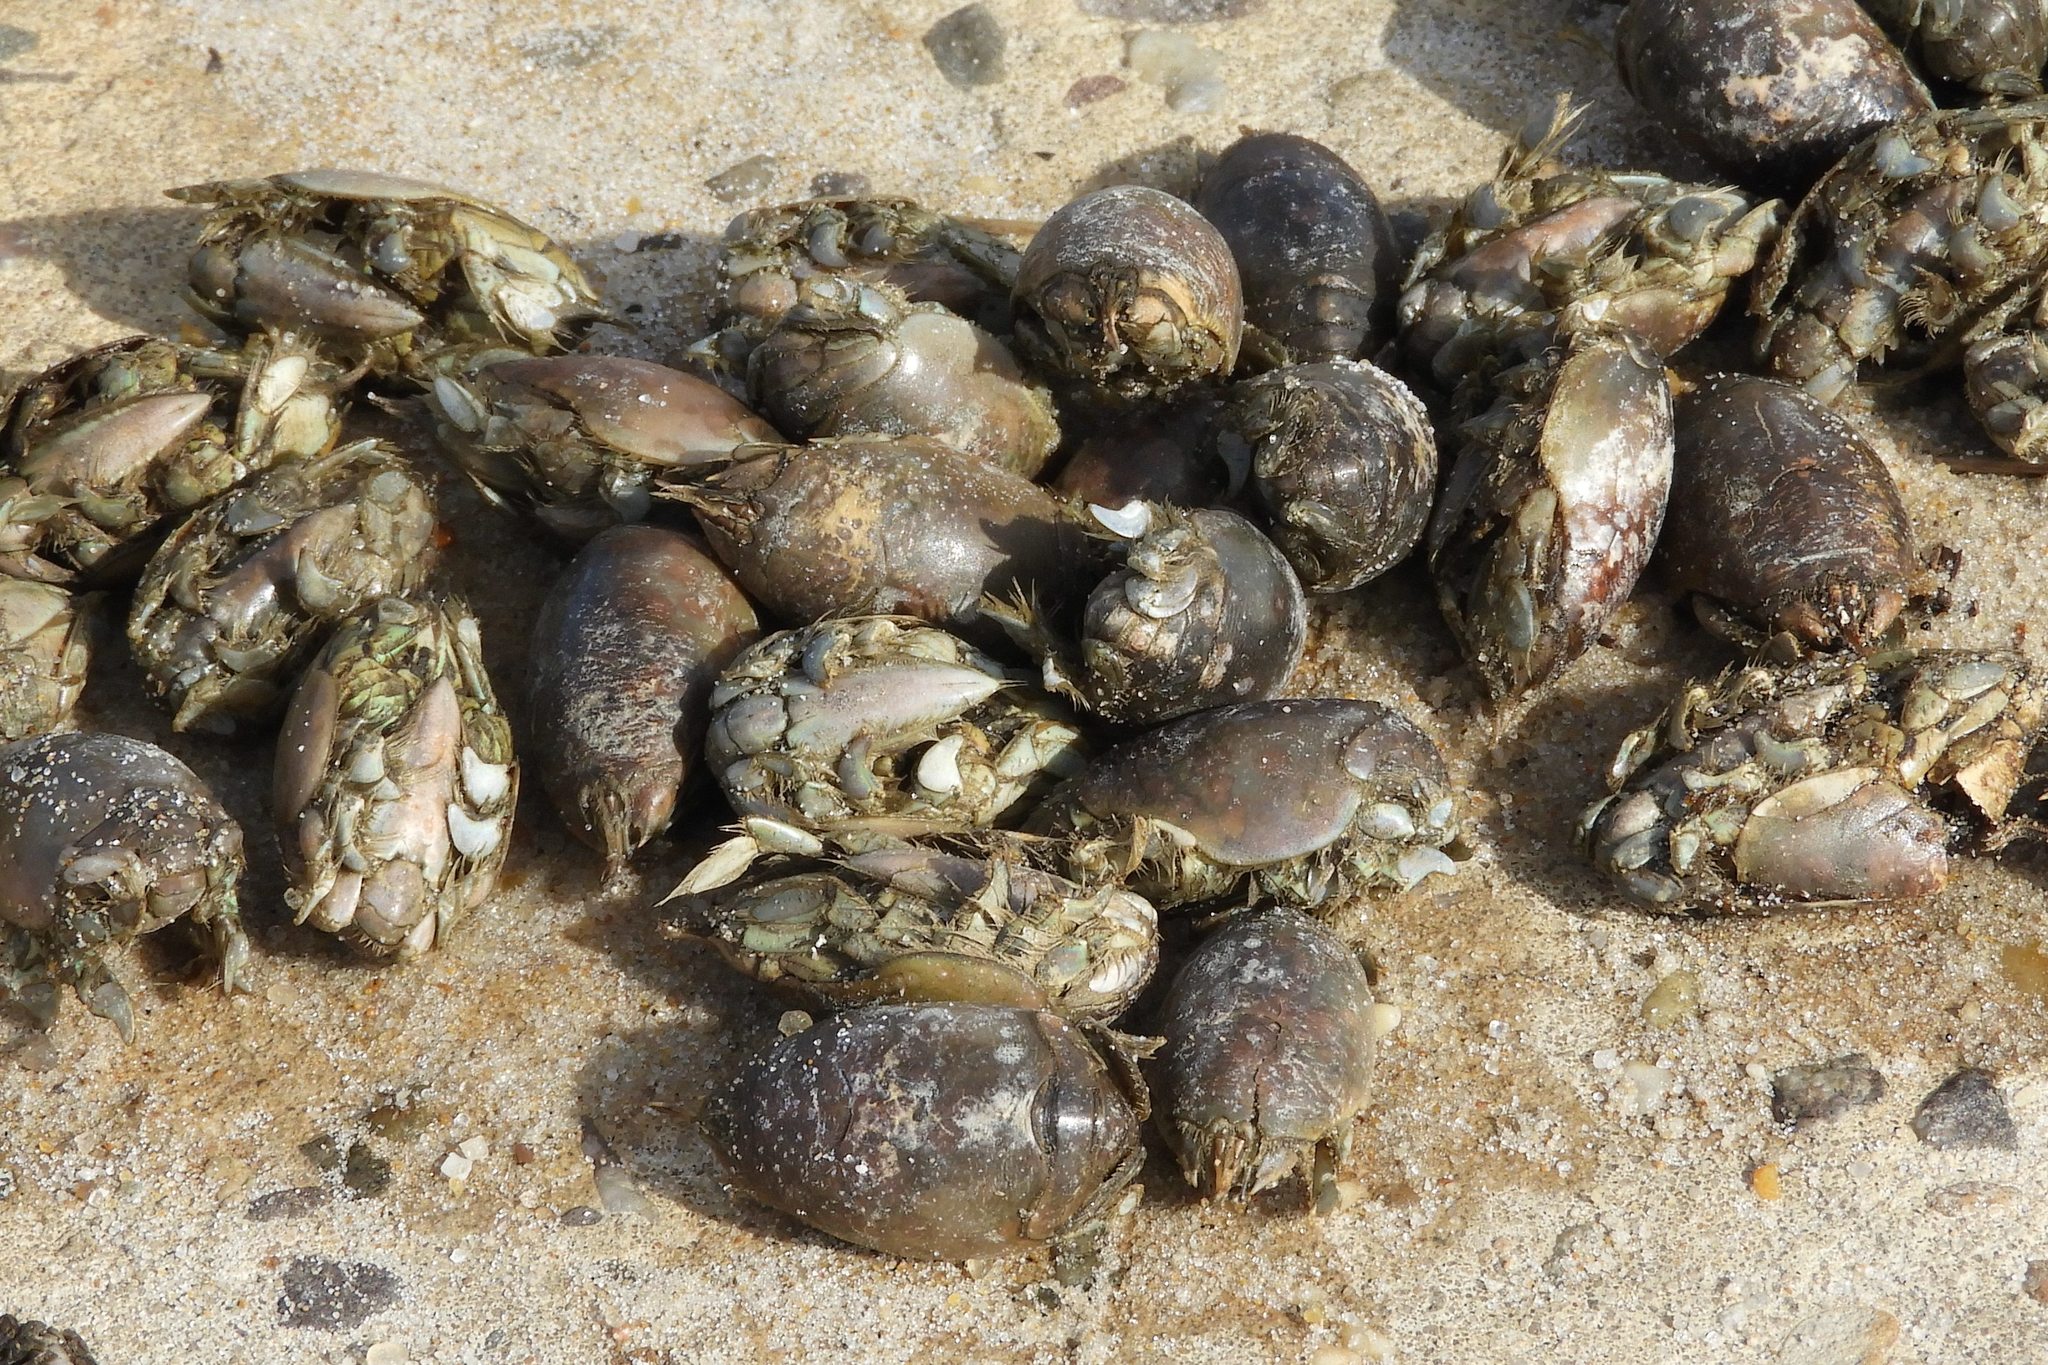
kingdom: Animalia
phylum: Arthropoda
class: Malacostraca
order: Decapoda
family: Hippidae
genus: Emerita
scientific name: Emerita talpoida
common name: Atlantic sand crab
